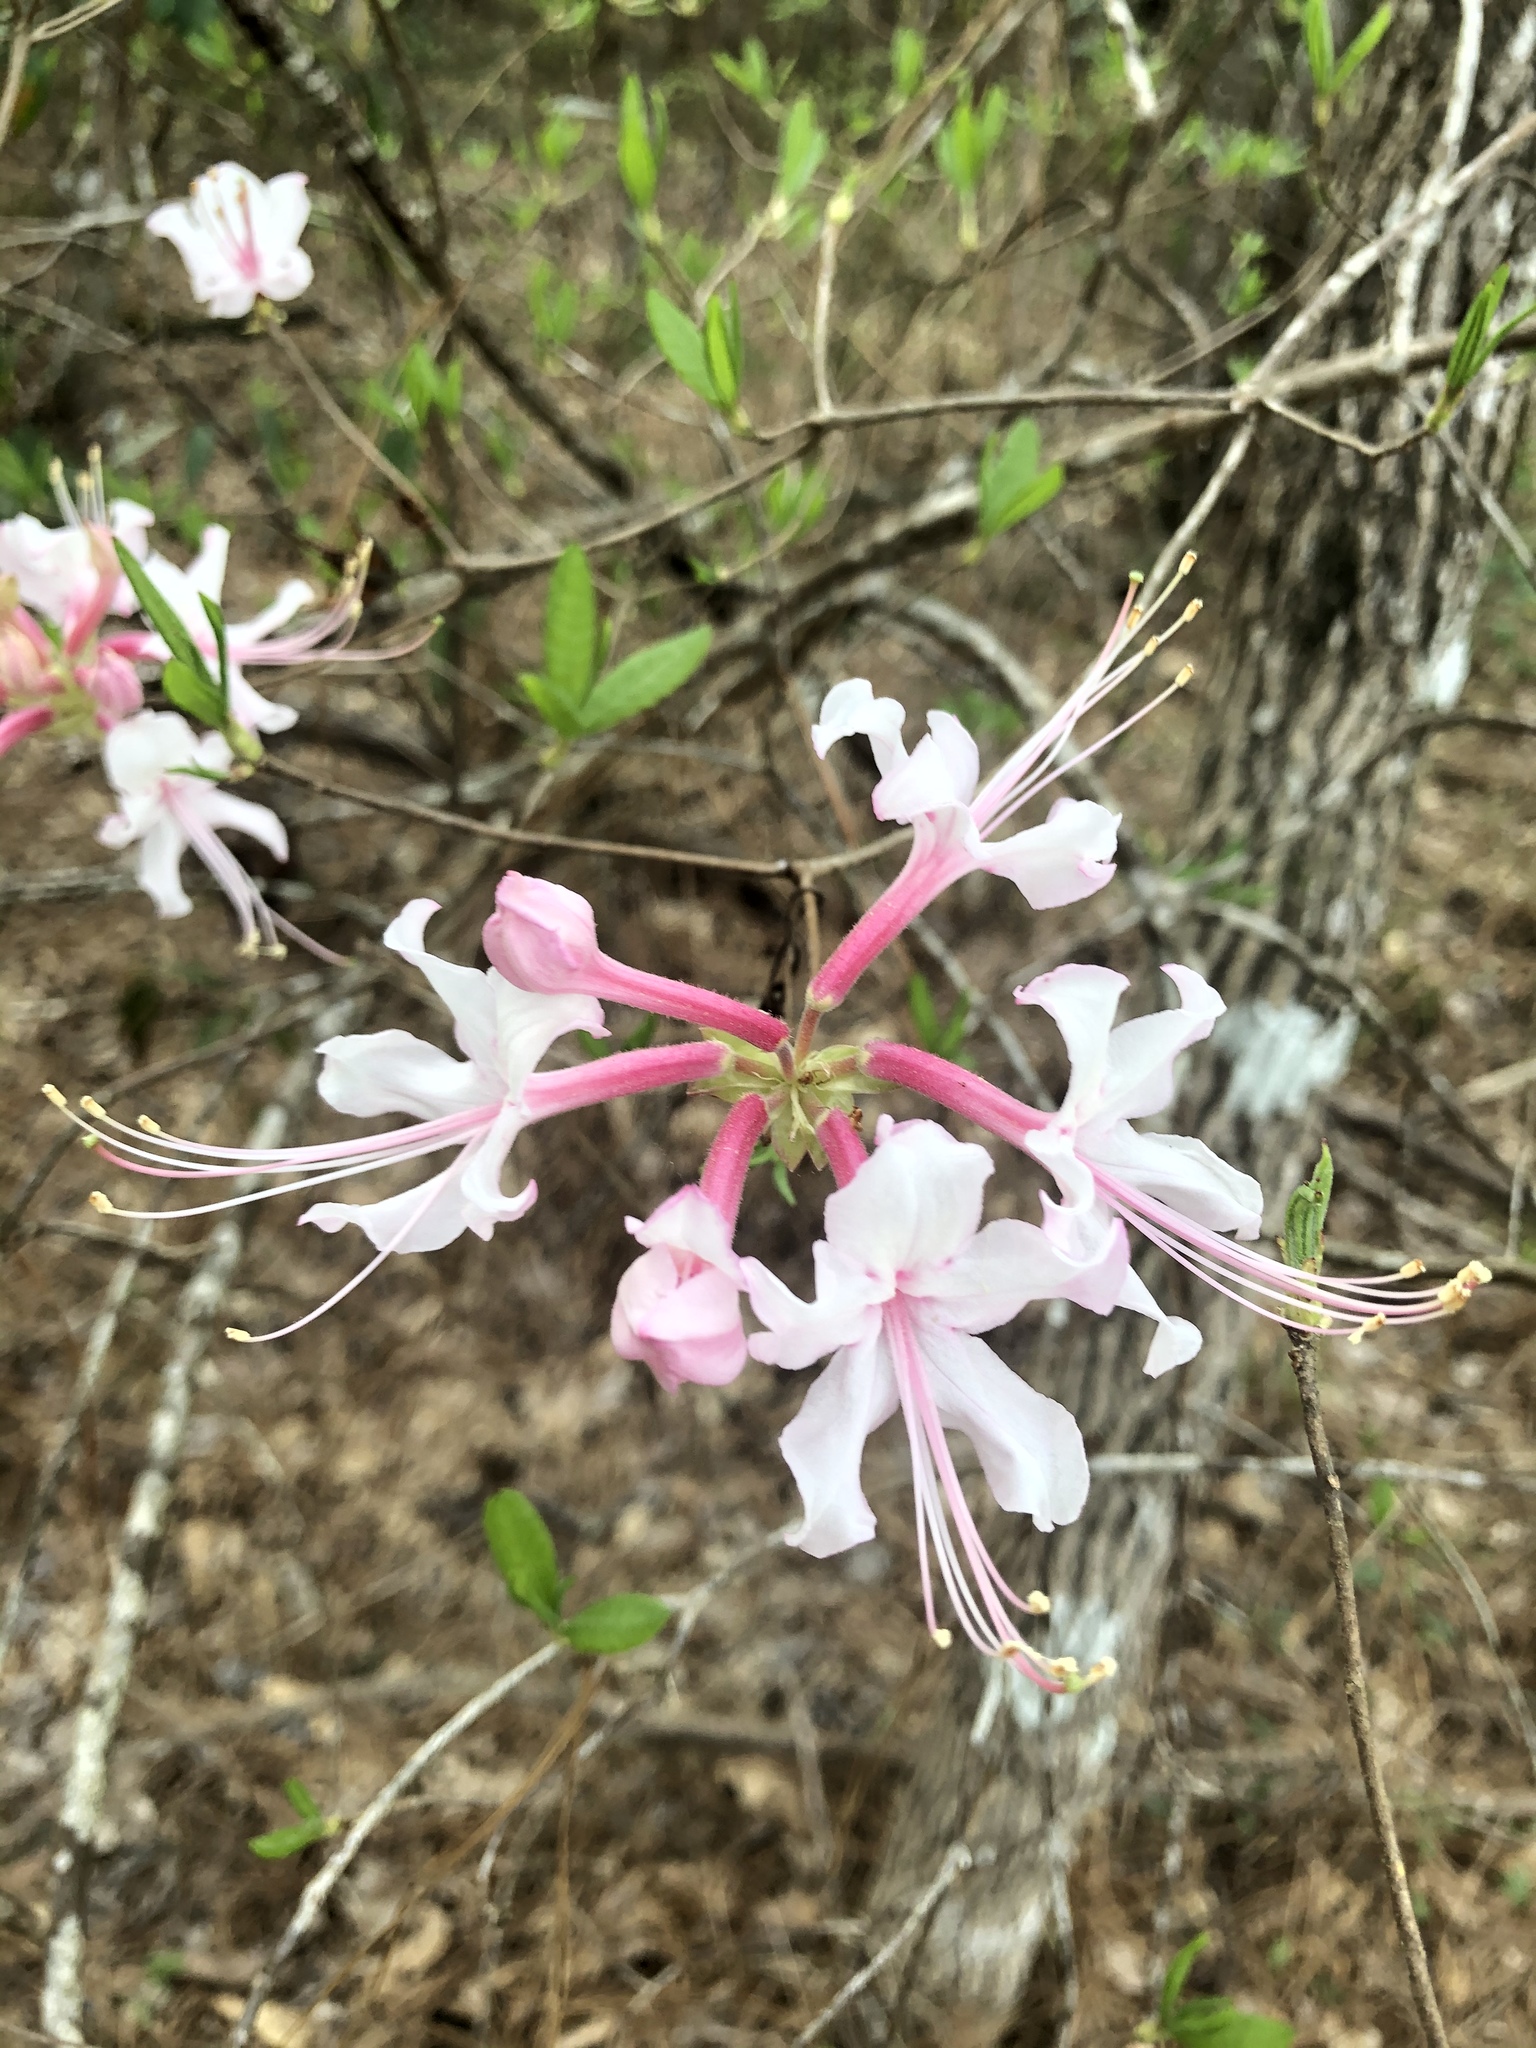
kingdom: Plantae
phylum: Tracheophyta
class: Magnoliopsida
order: Ericales
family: Ericaceae
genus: Rhododendron
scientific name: Rhododendron canescens
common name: Mountain azalea
